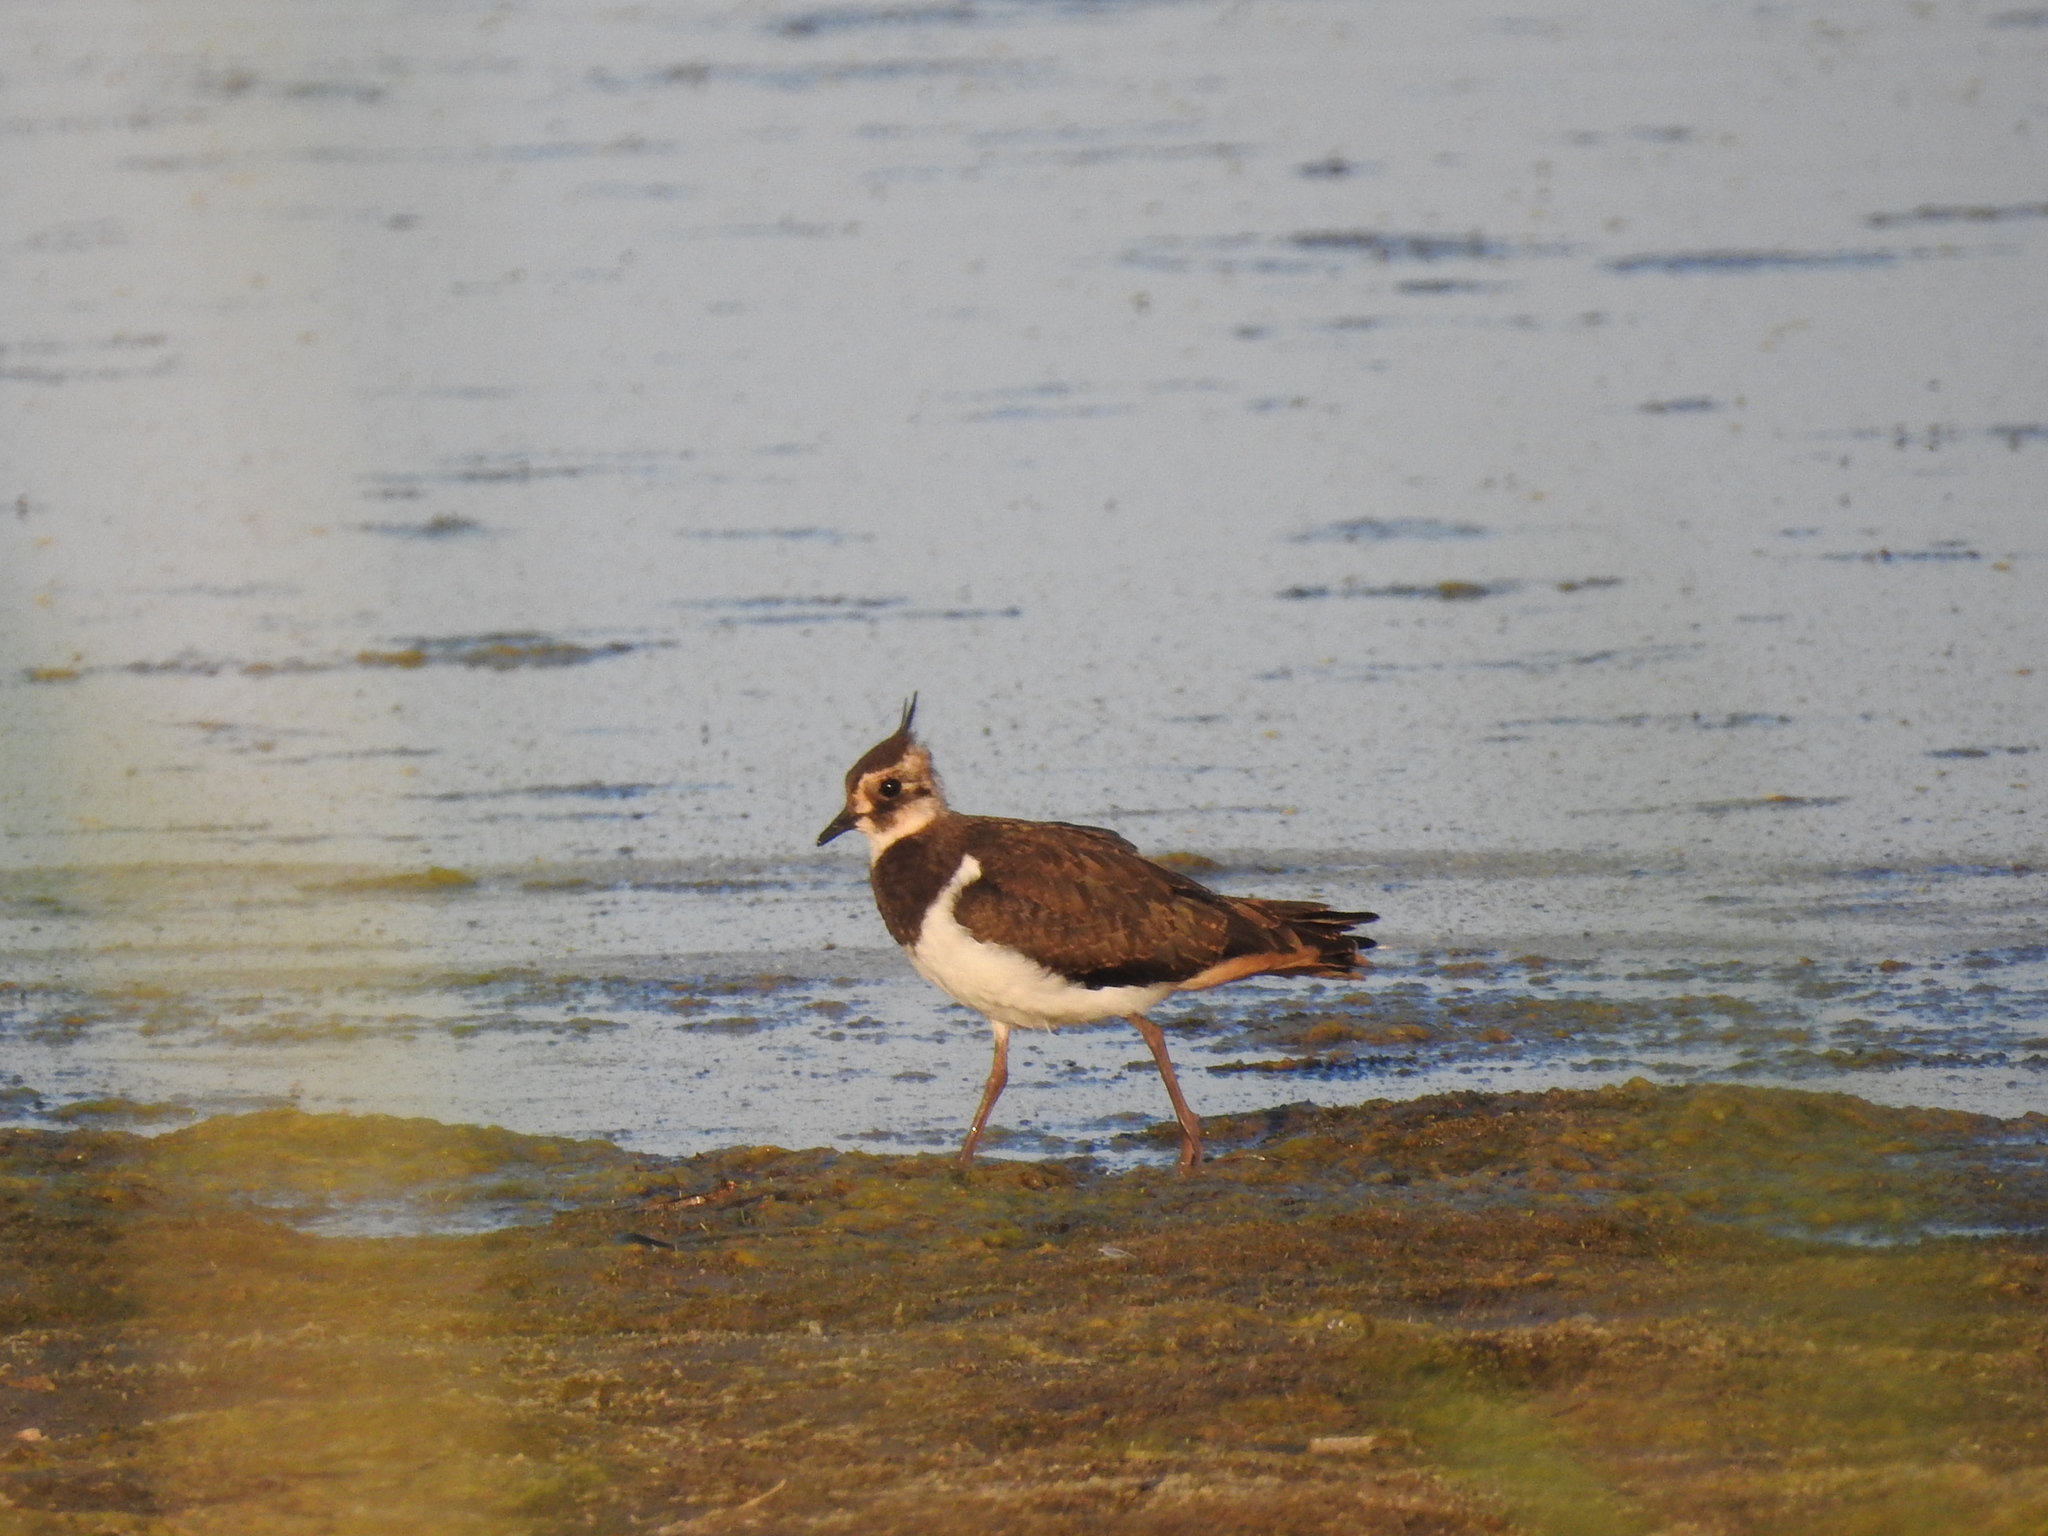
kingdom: Animalia
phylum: Chordata
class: Aves
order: Charadriiformes
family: Charadriidae
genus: Vanellus
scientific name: Vanellus vanellus
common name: Northern lapwing
